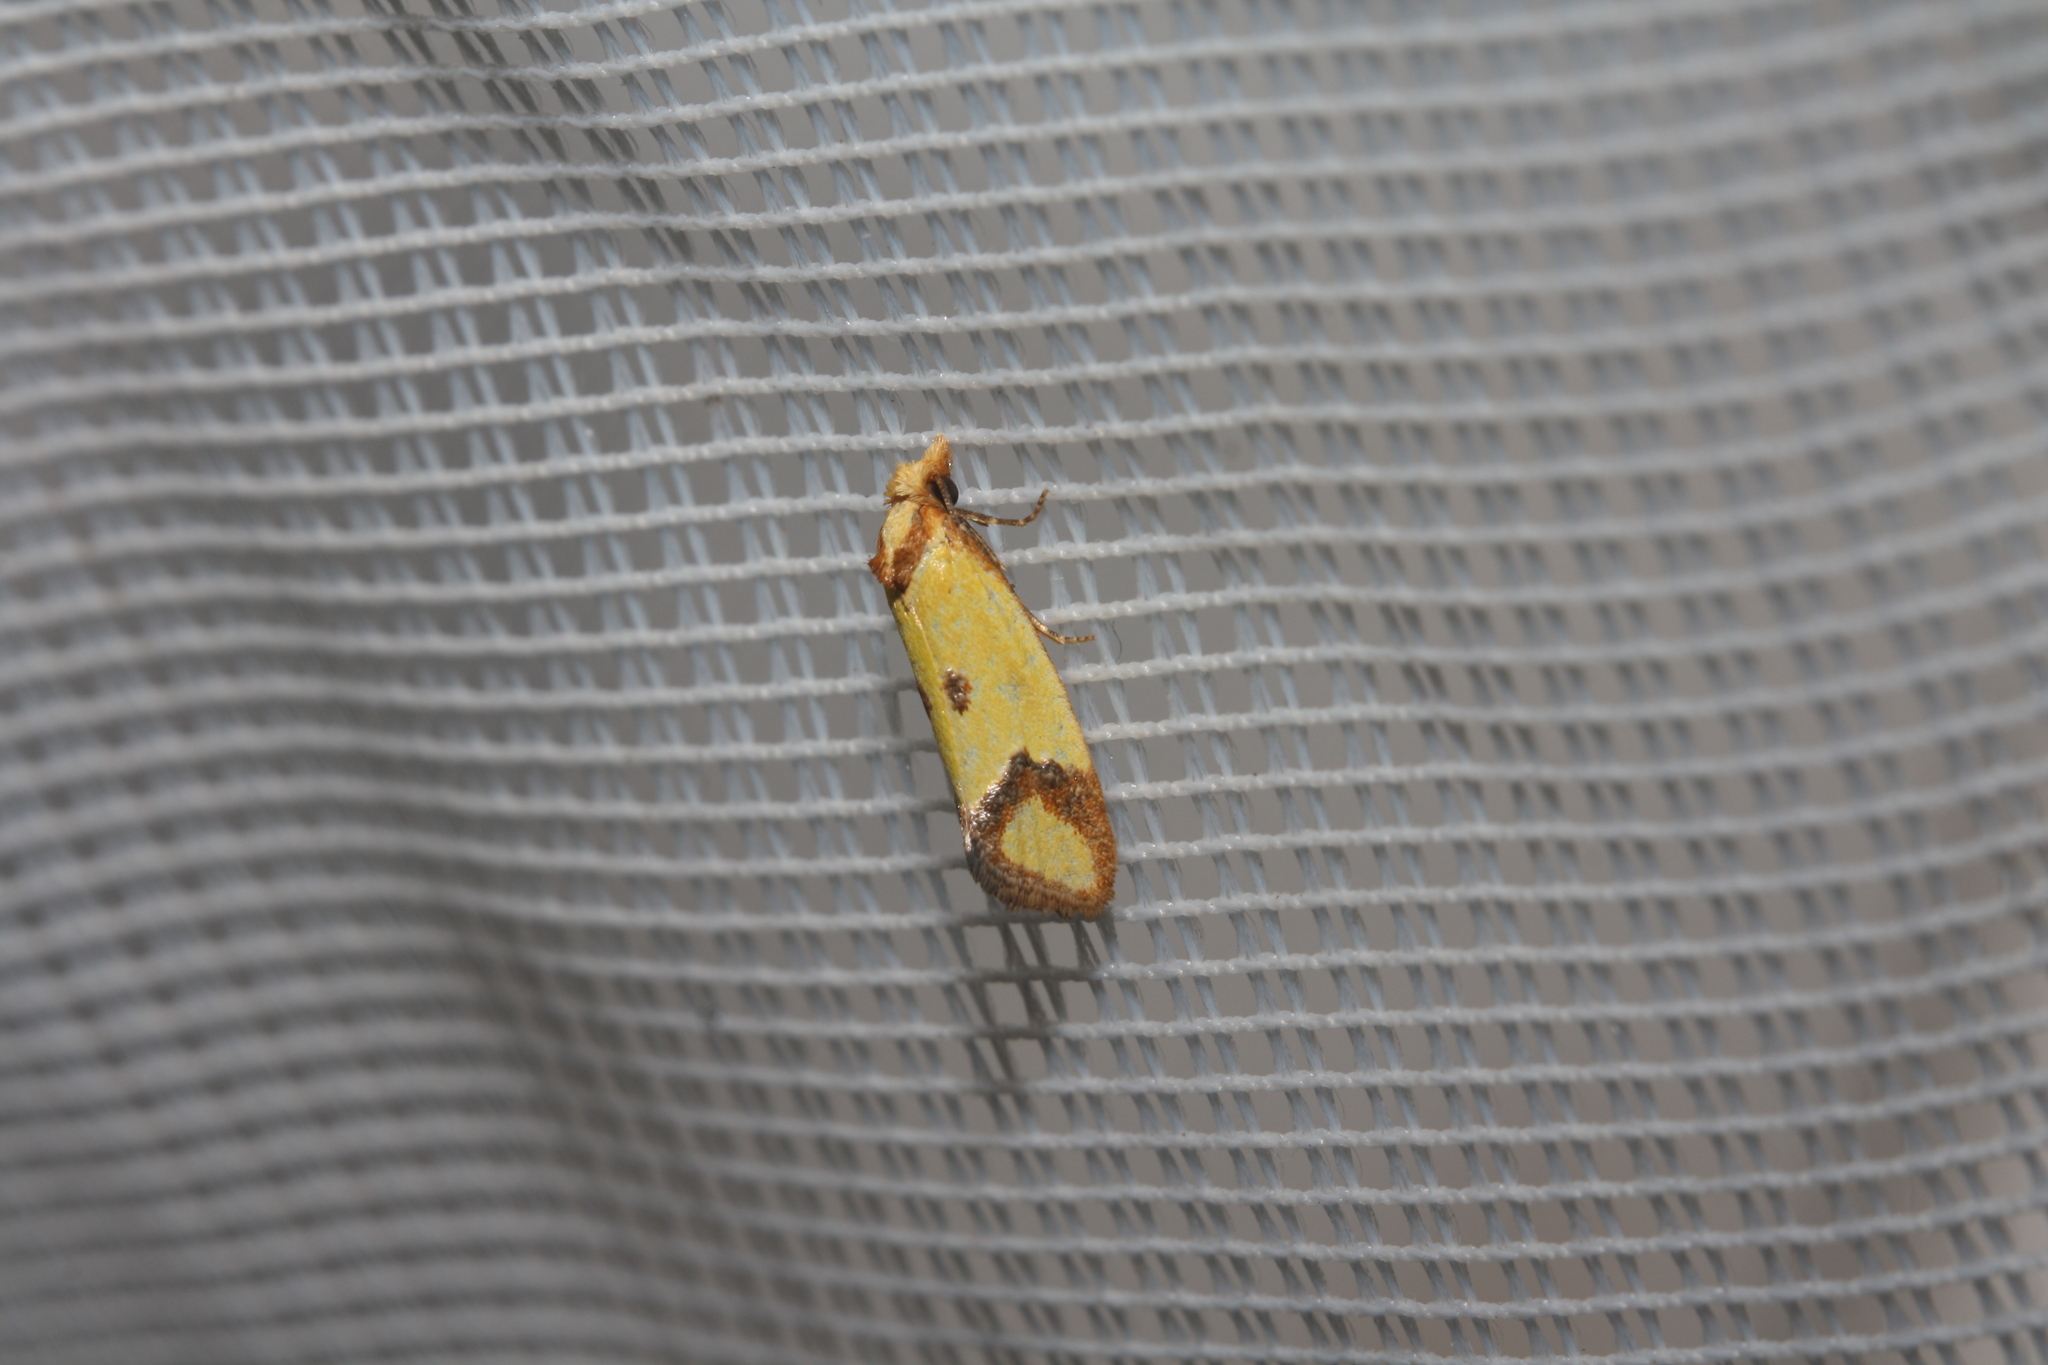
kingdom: Animalia
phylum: Arthropoda
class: Insecta
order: Lepidoptera
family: Tortricidae
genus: Agapeta
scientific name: Agapeta zoegana
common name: Sulfur knapweed root moth
